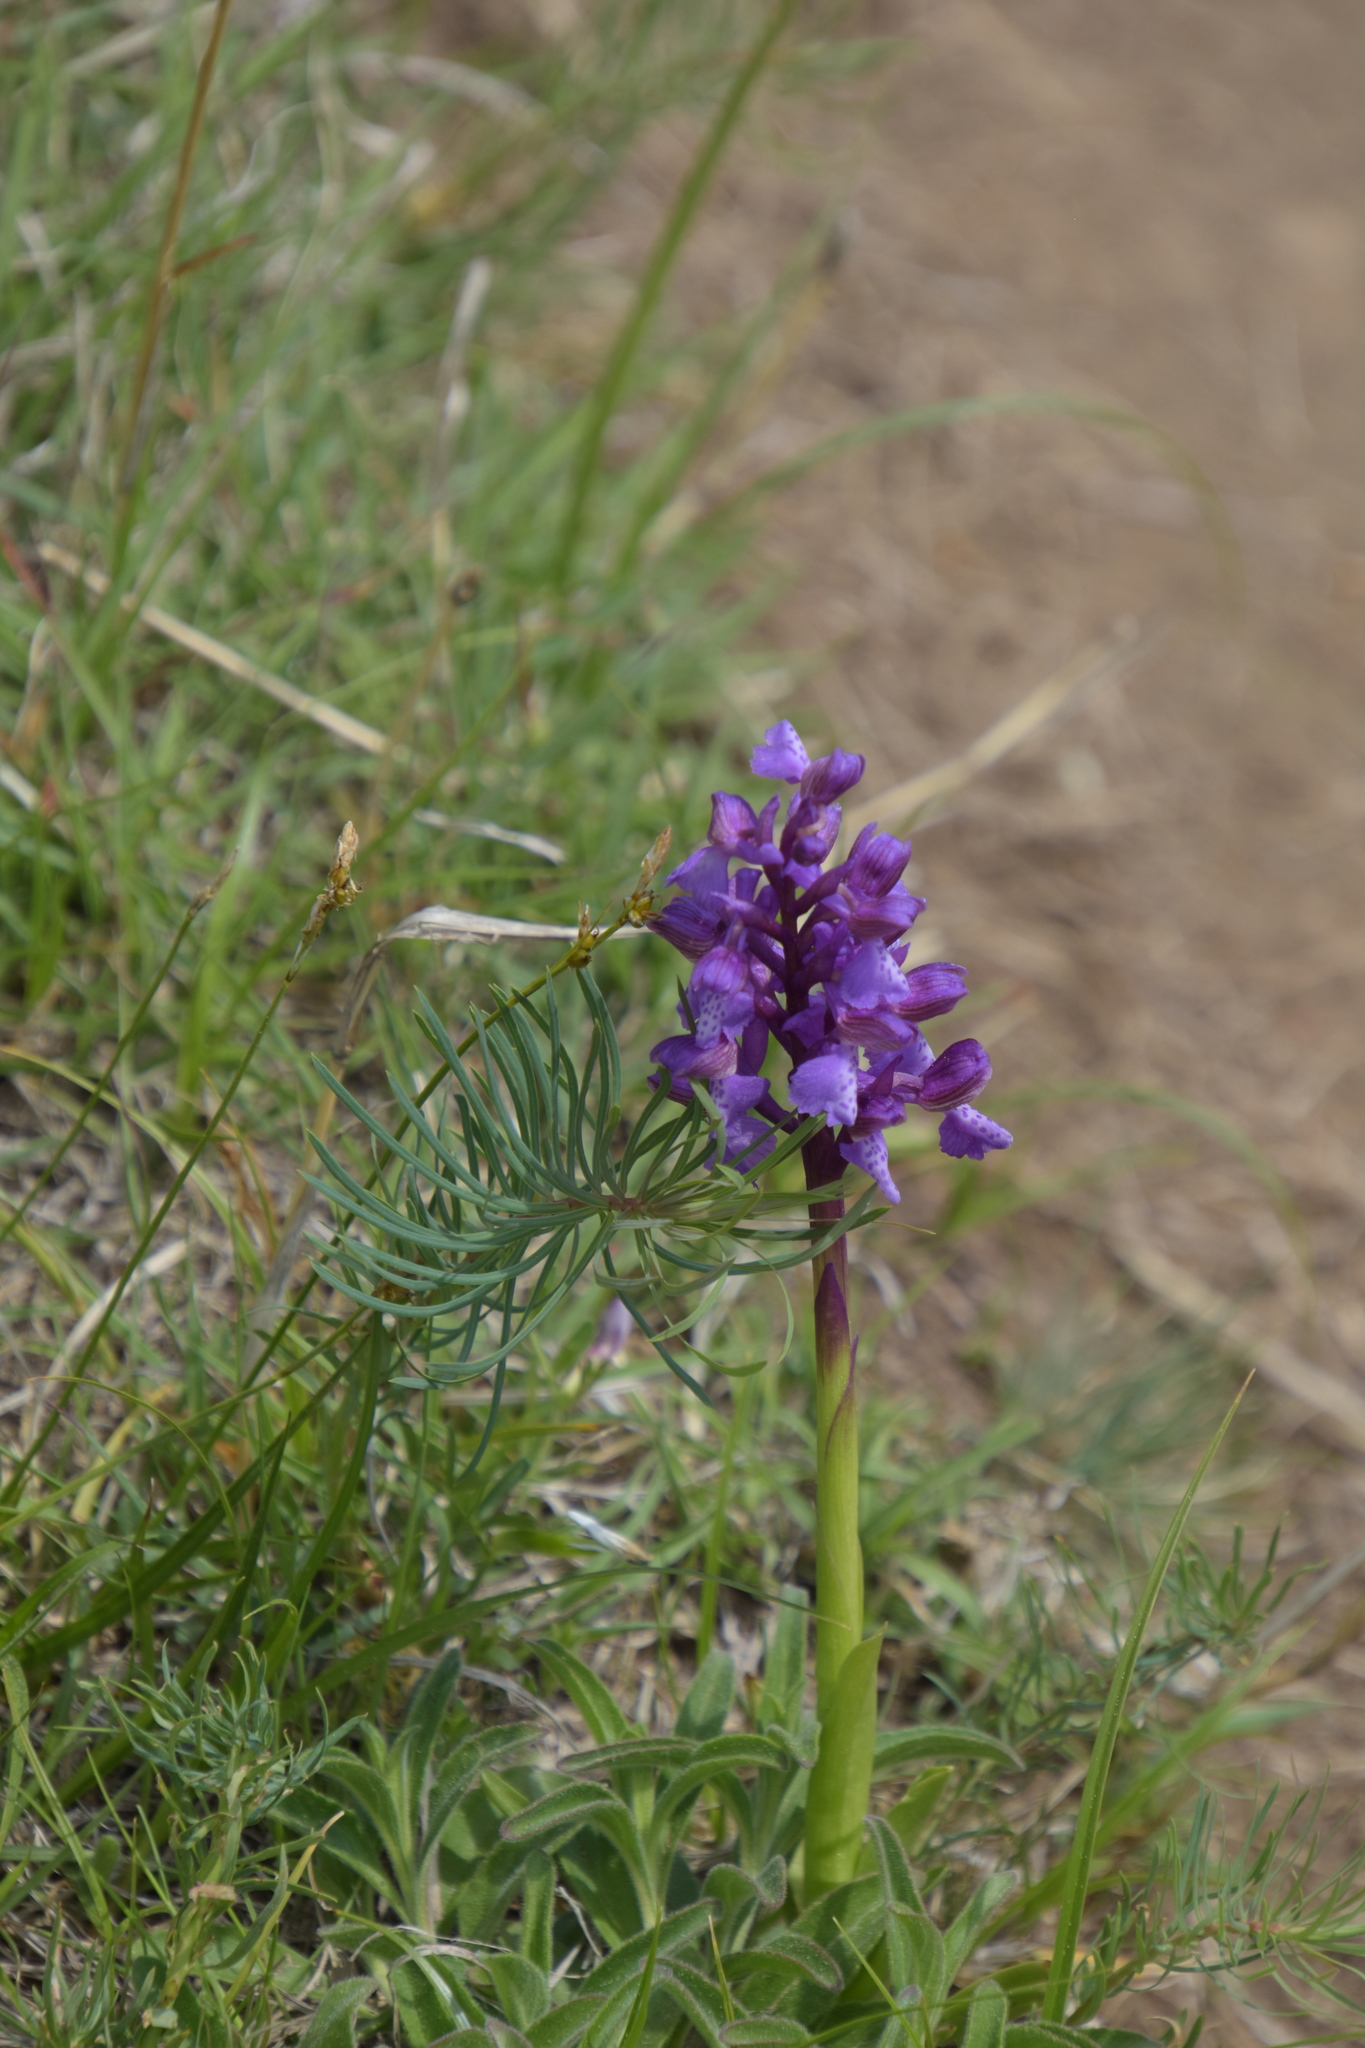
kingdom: Plantae
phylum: Tracheophyta
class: Liliopsida
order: Asparagales
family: Orchidaceae
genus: Anacamptis
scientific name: Anacamptis morio
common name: Green-winged orchid
